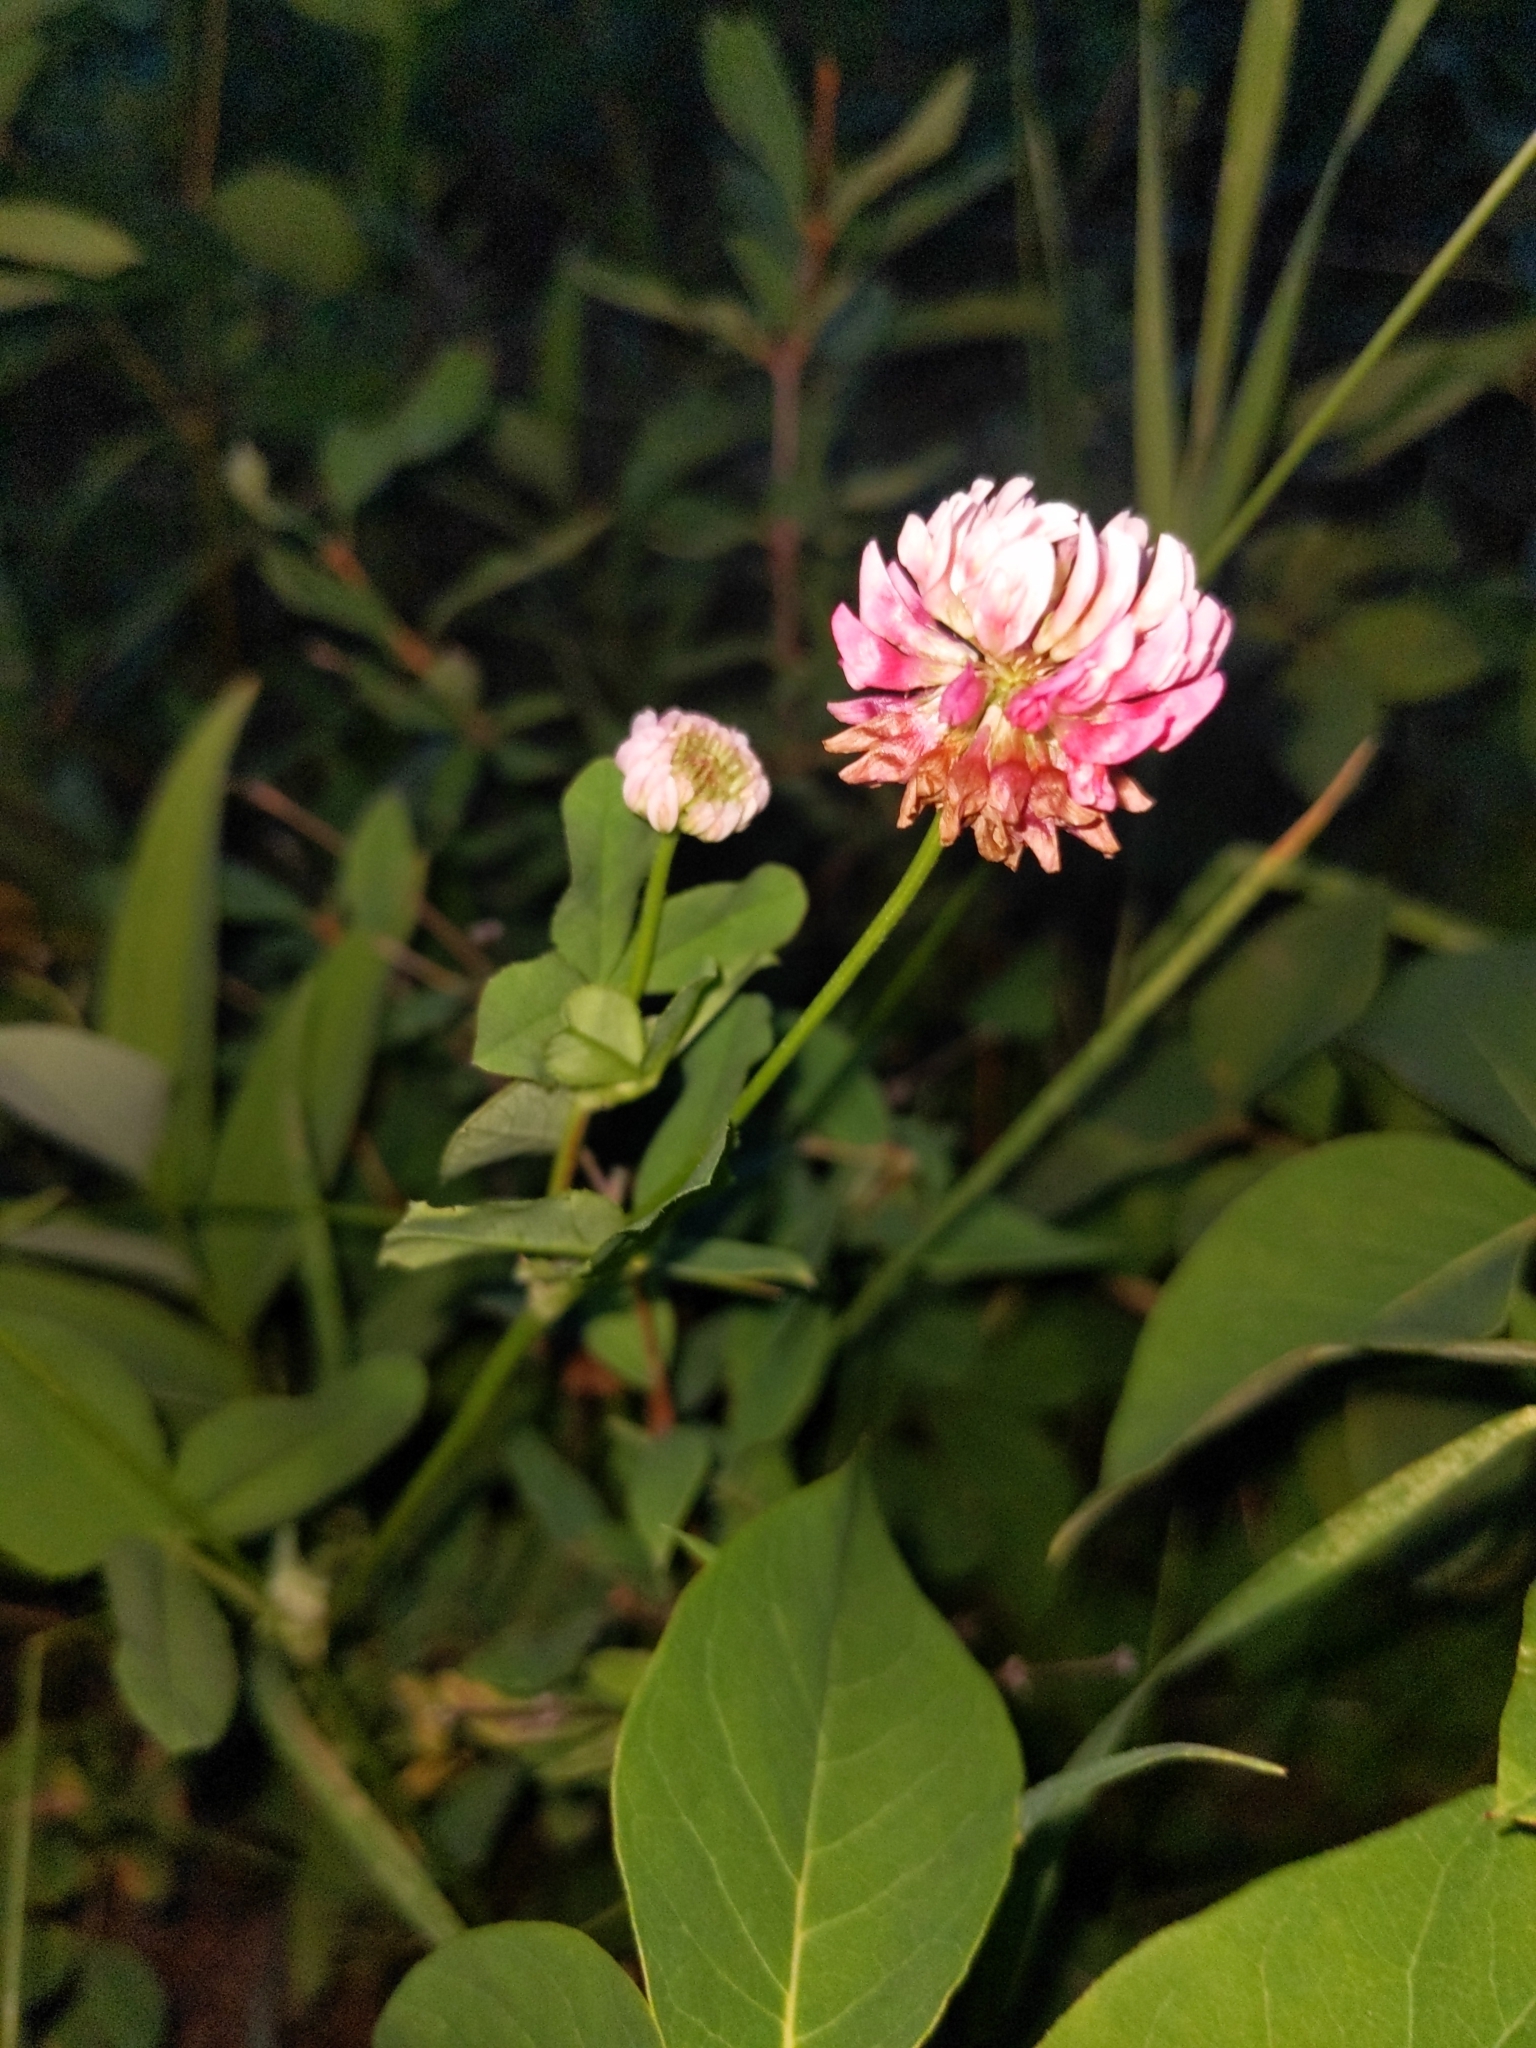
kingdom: Plantae
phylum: Tracheophyta
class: Magnoliopsida
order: Fabales
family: Fabaceae
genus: Trifolium
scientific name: Trifolium hybridum
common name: Alsike clover
